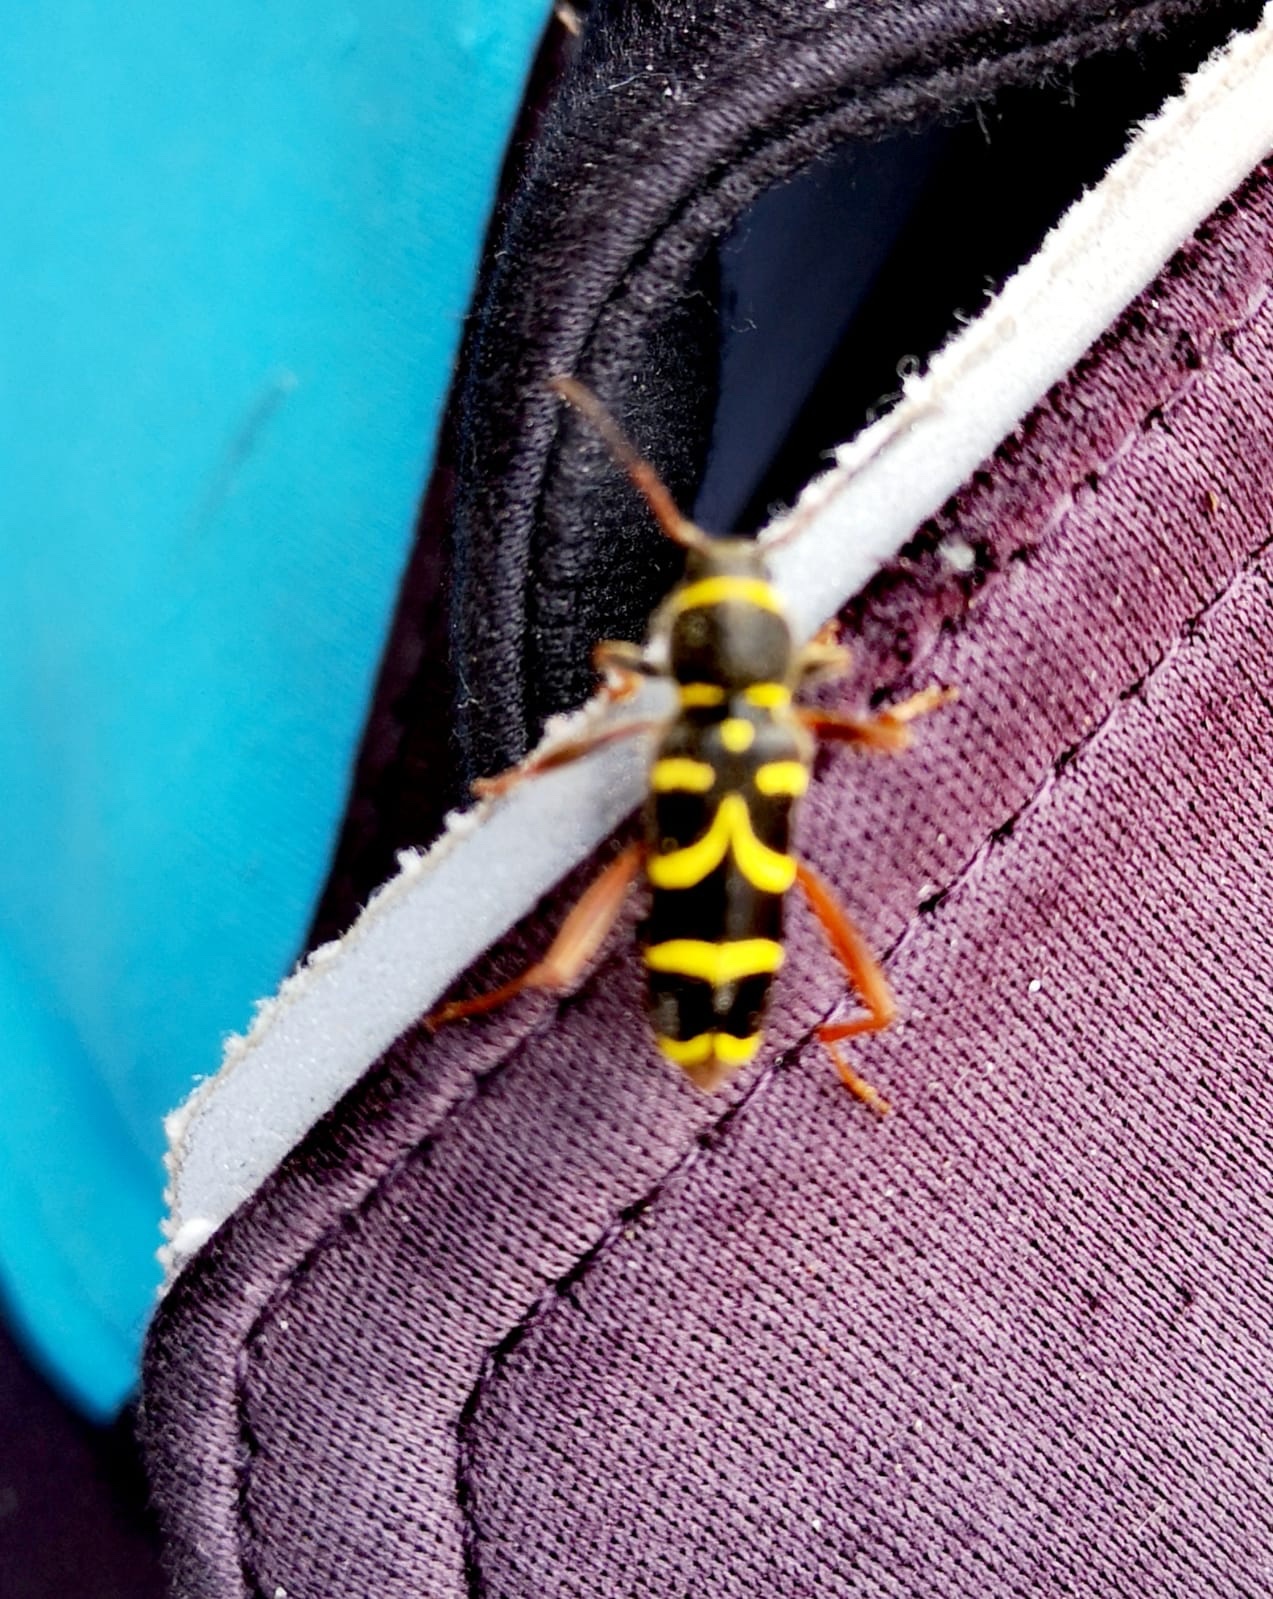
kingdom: Animalia
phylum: Arthropoda
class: Insecta
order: Coleoptera
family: Cerambycidae
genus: Clytus
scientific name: Clytus arietis
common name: Wasp beetle
